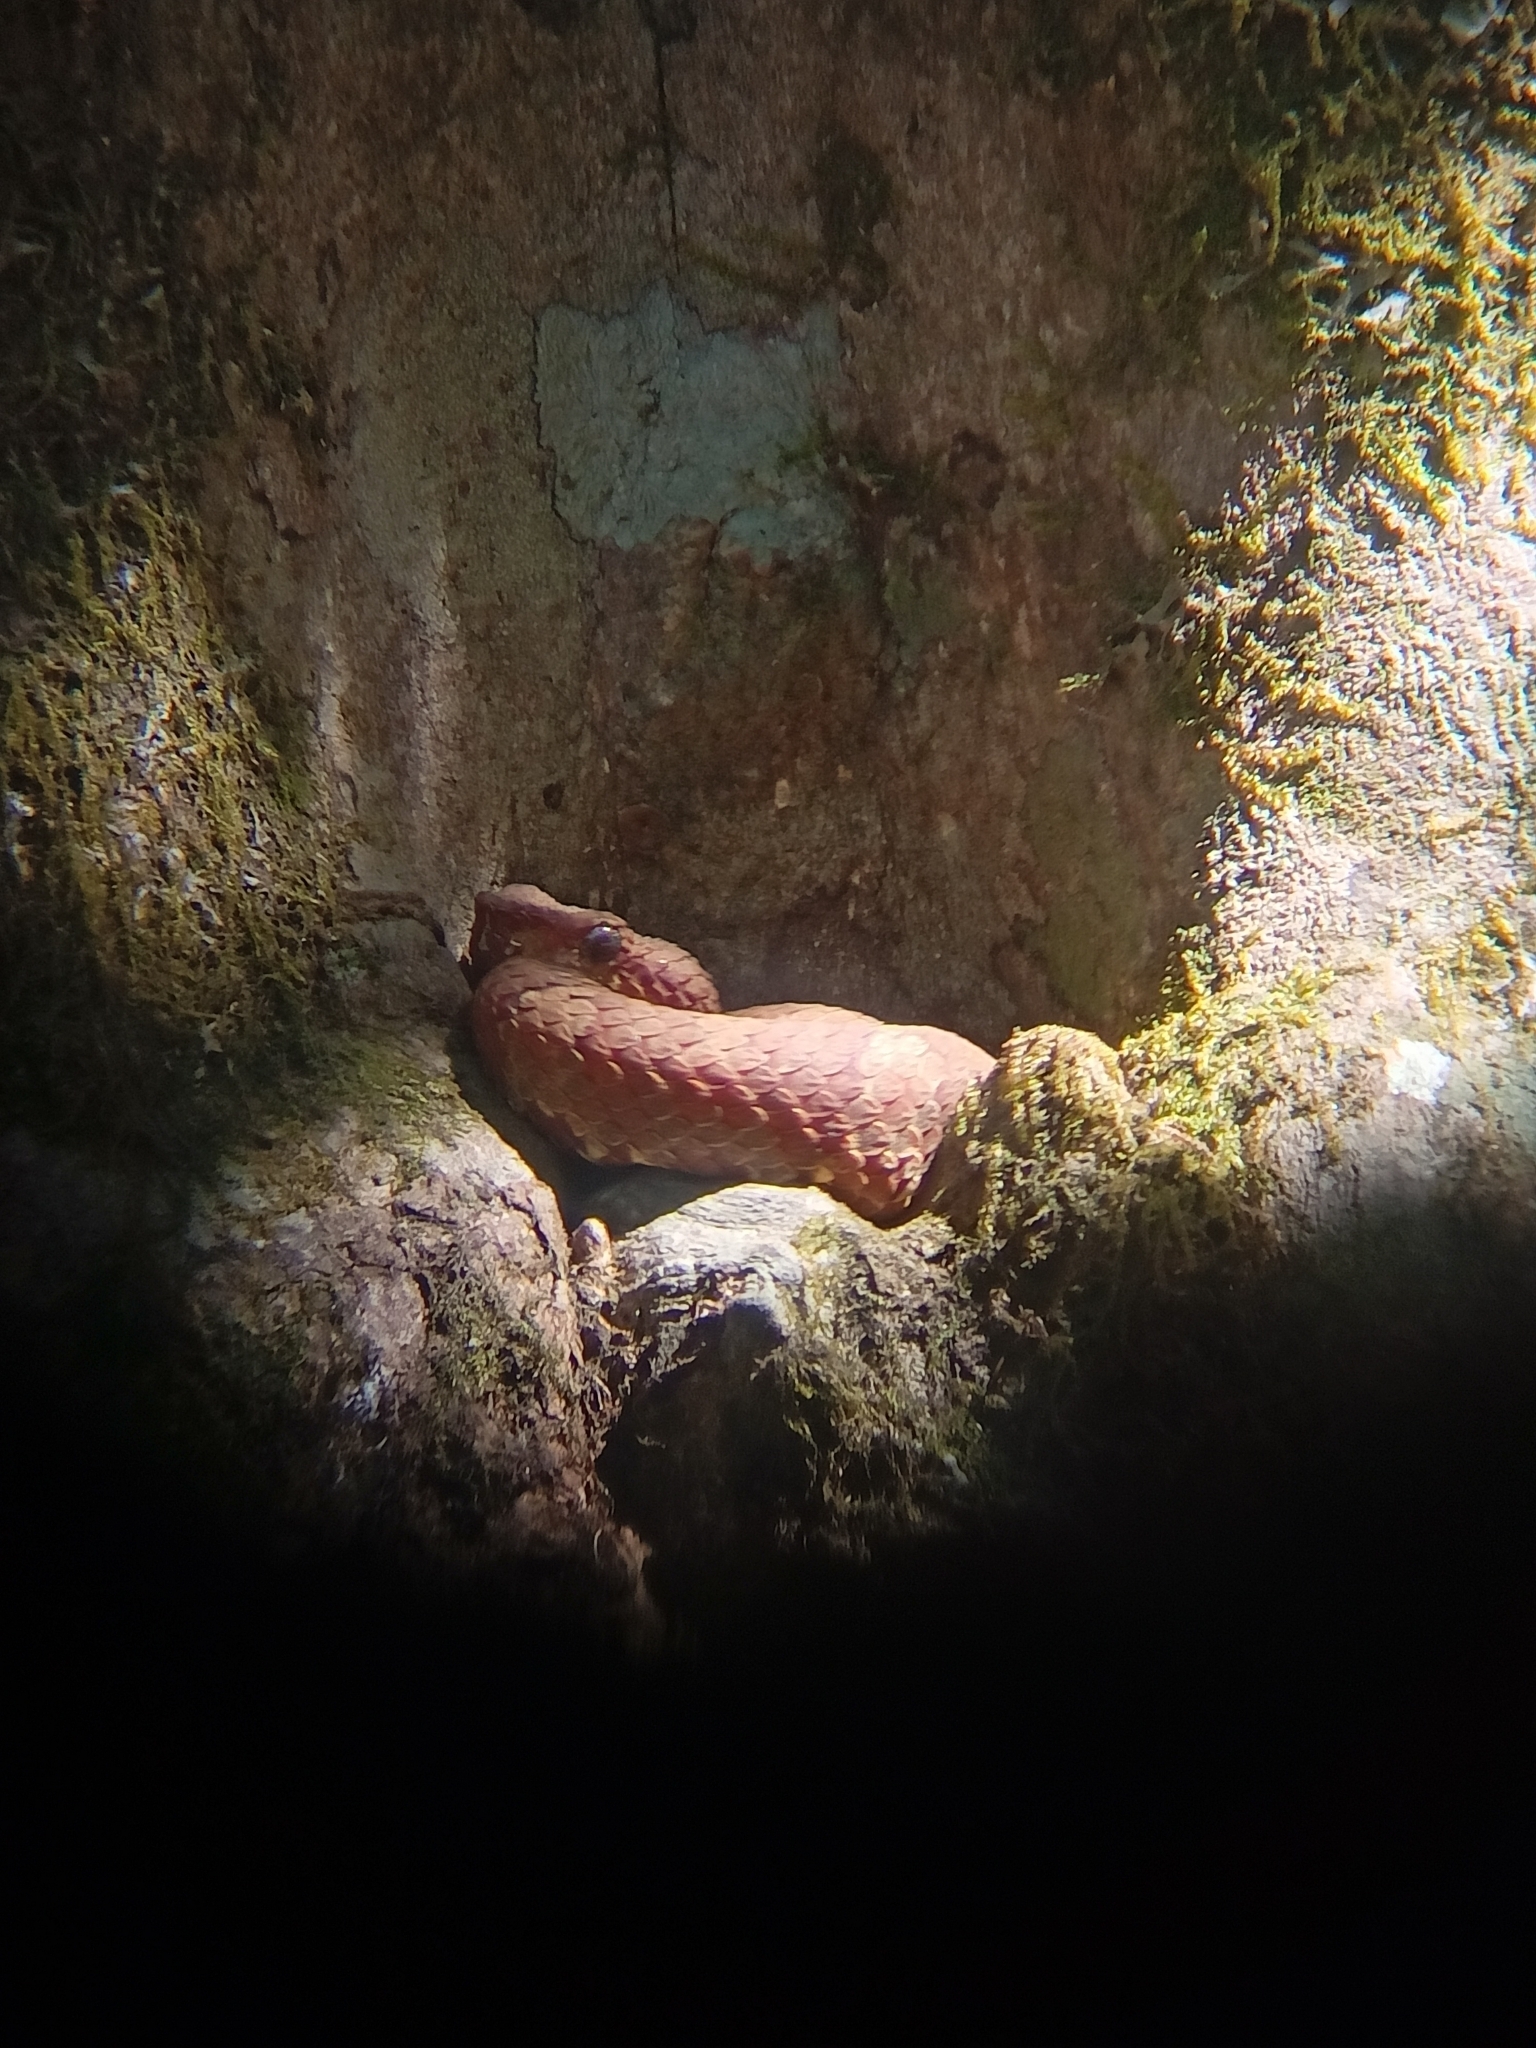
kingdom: Animalia
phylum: Chordata
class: Squamata
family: Viperidae
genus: Craspedocephalus
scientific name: Craspedocephalus malabaricus
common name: Malabarian pit viper
